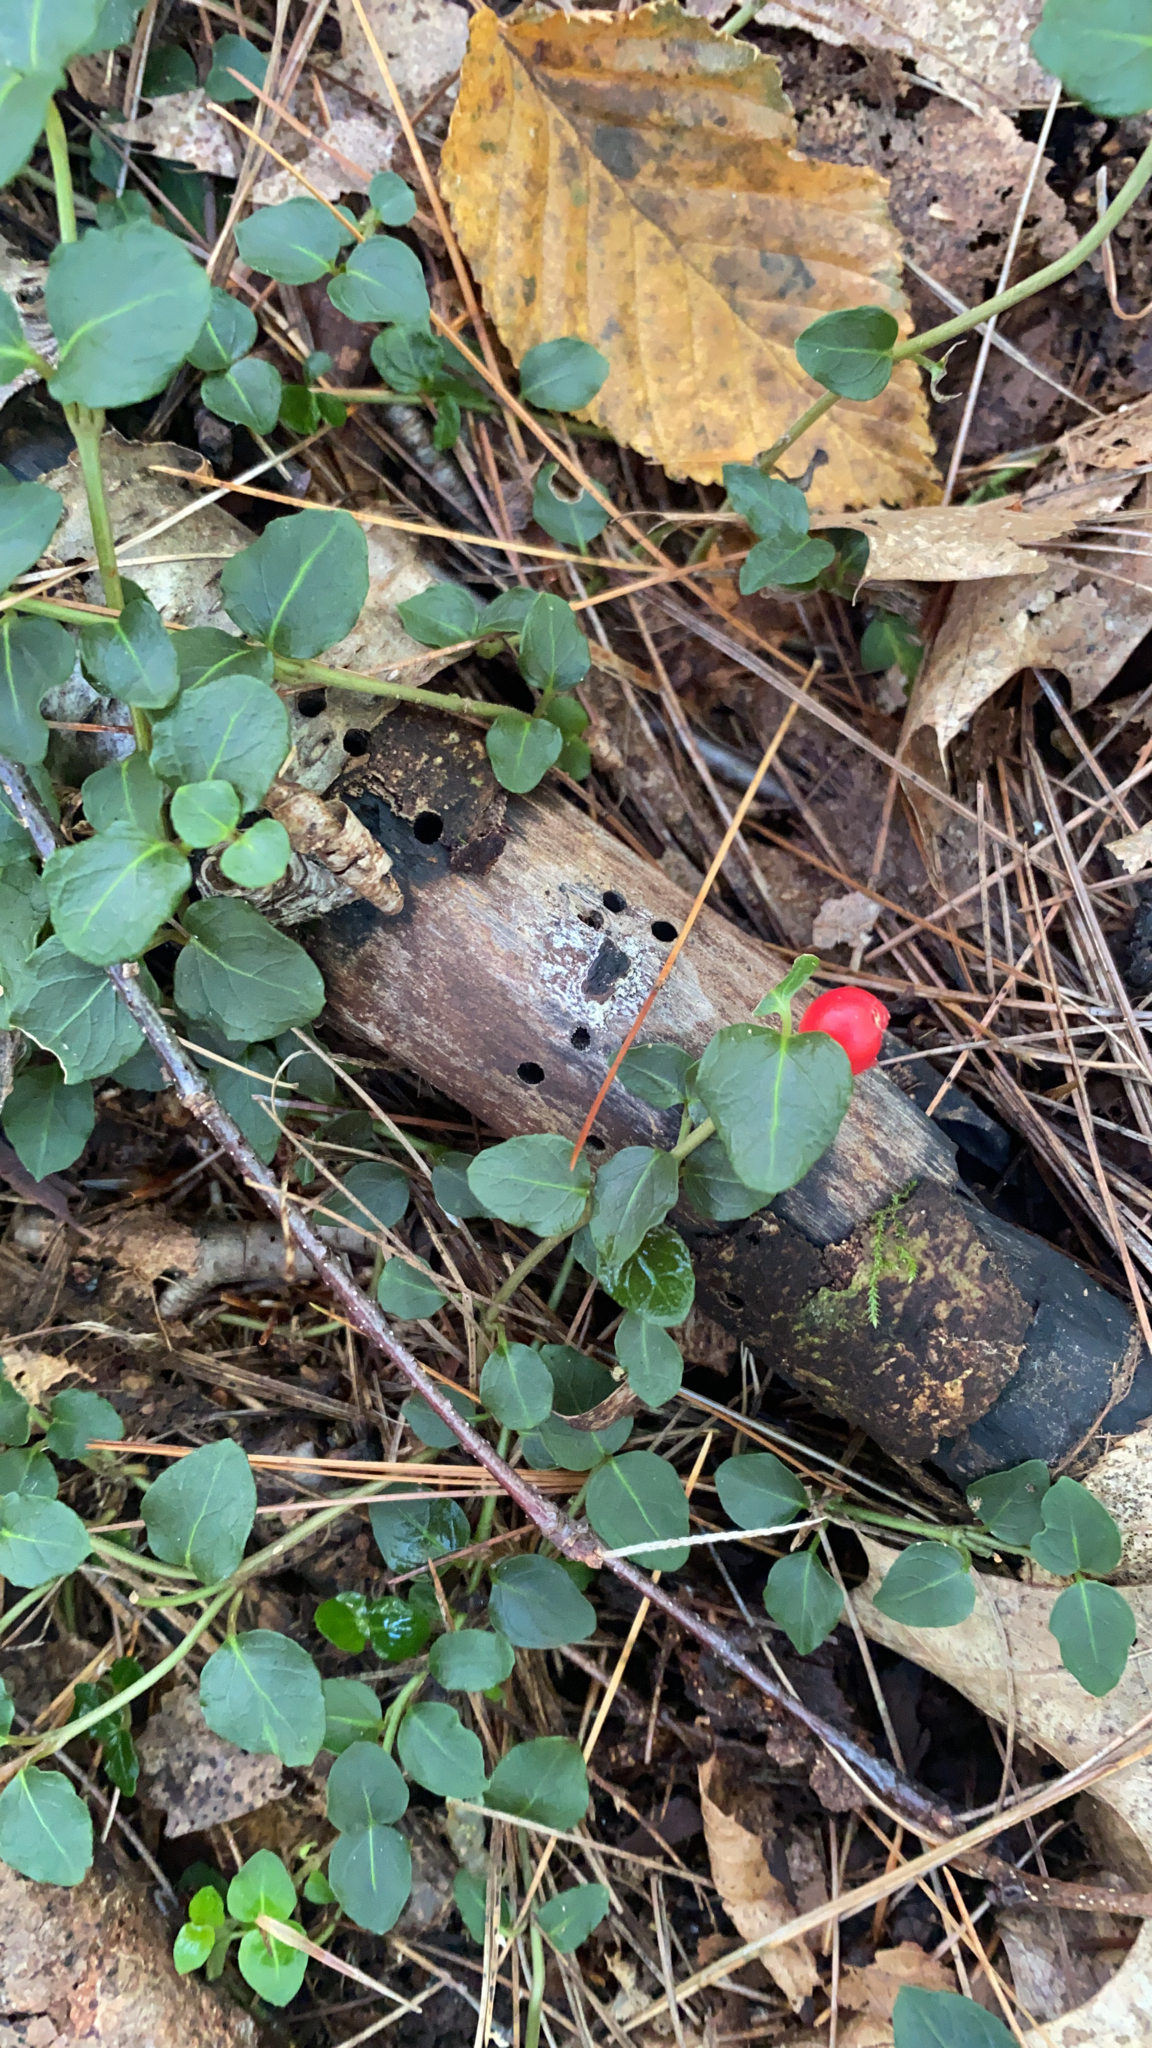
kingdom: Plantae
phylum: Tracheophyta
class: Magnoliopsida
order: Gentianales
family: Rubiaceae
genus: Mitchella
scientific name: Mitchella repens
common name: Partridge-berry
